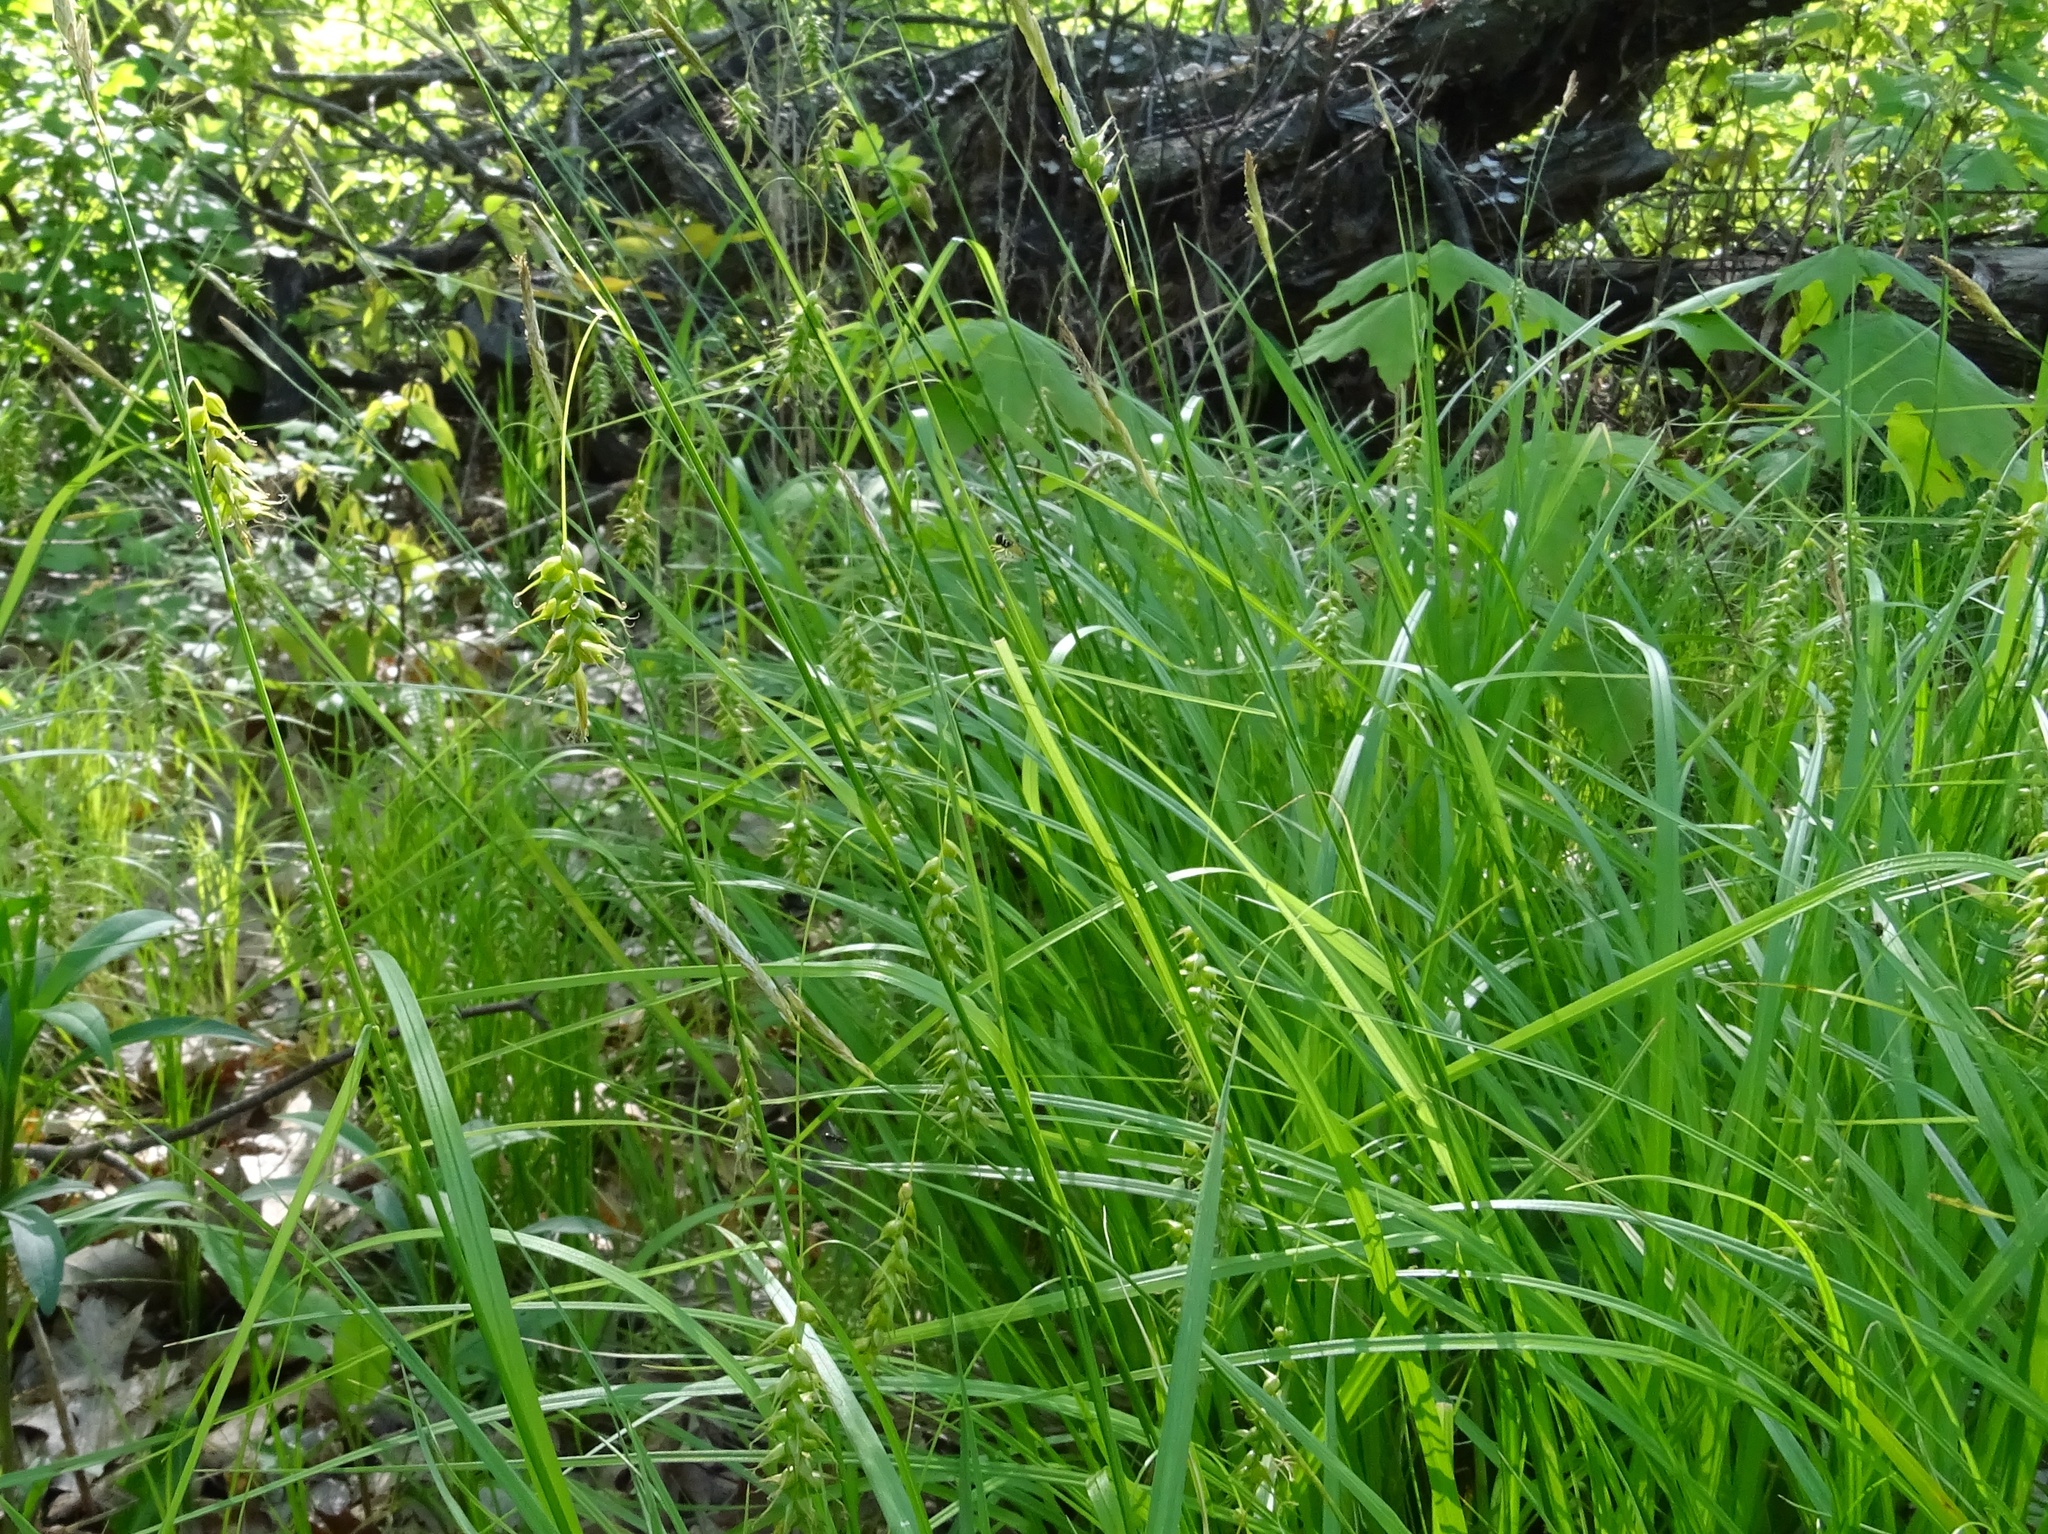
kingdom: Plantae
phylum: Tracheophyta
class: Liliopsida
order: Poales
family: Cyperaceae
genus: Carex
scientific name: Carex sprengelii
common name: Long-beaked sedge
